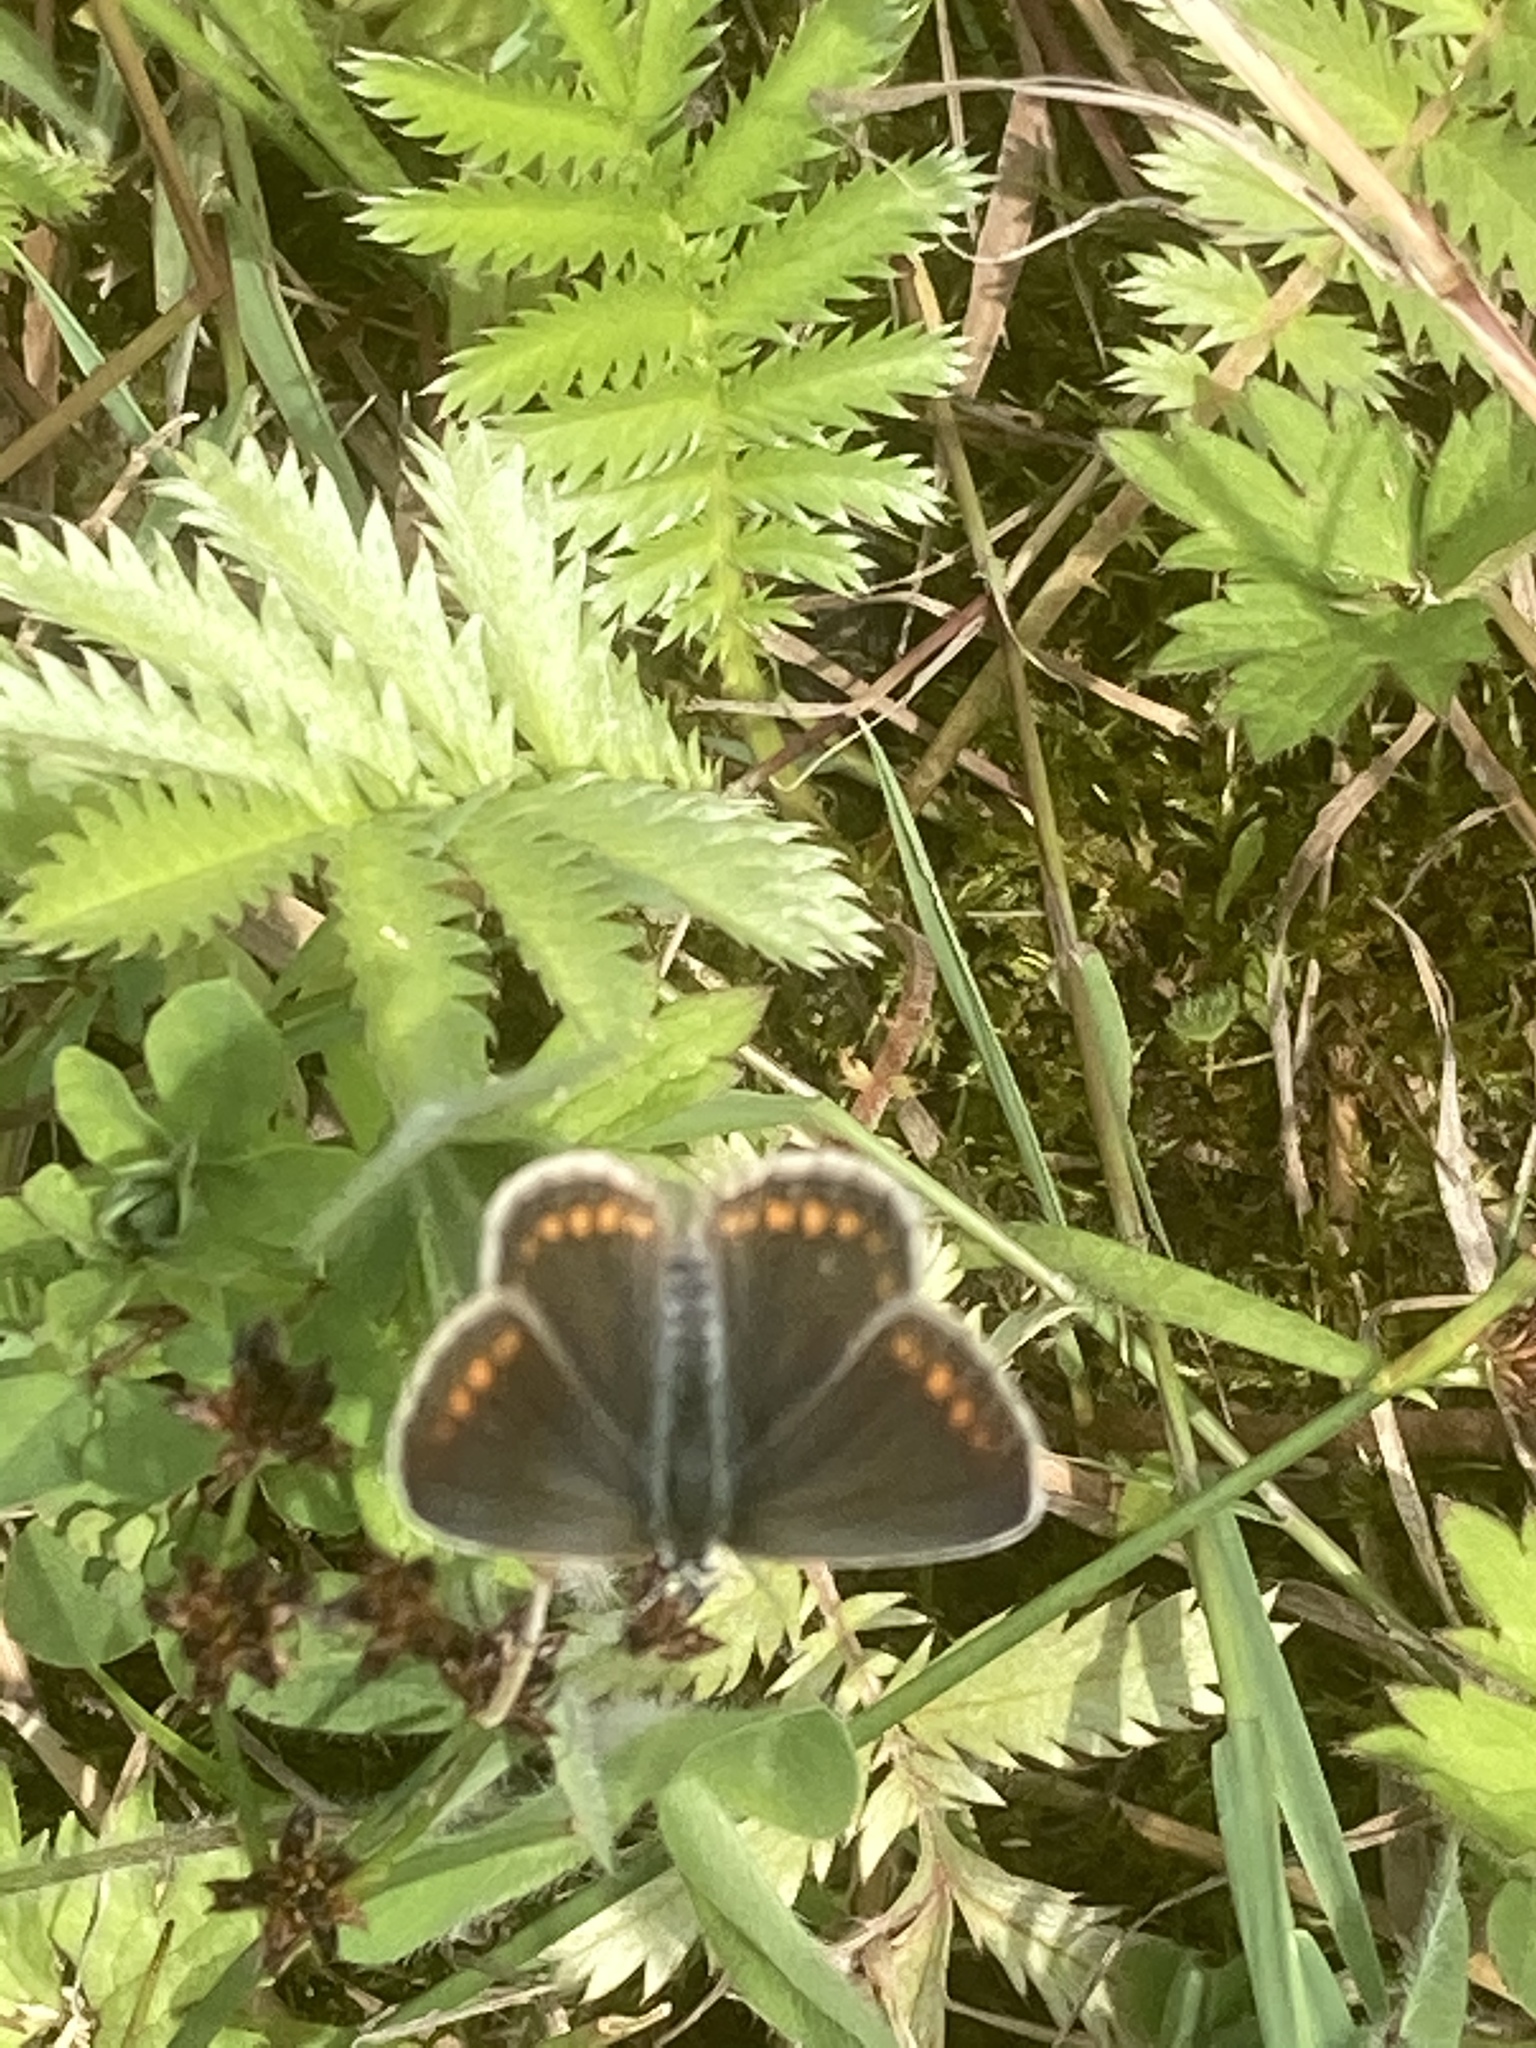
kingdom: Animalia
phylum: Arthropoda
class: Insecta
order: Lepidoptera
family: Lycaenidae
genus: Polyommatus
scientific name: Polyommatus icarus
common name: Common blue
